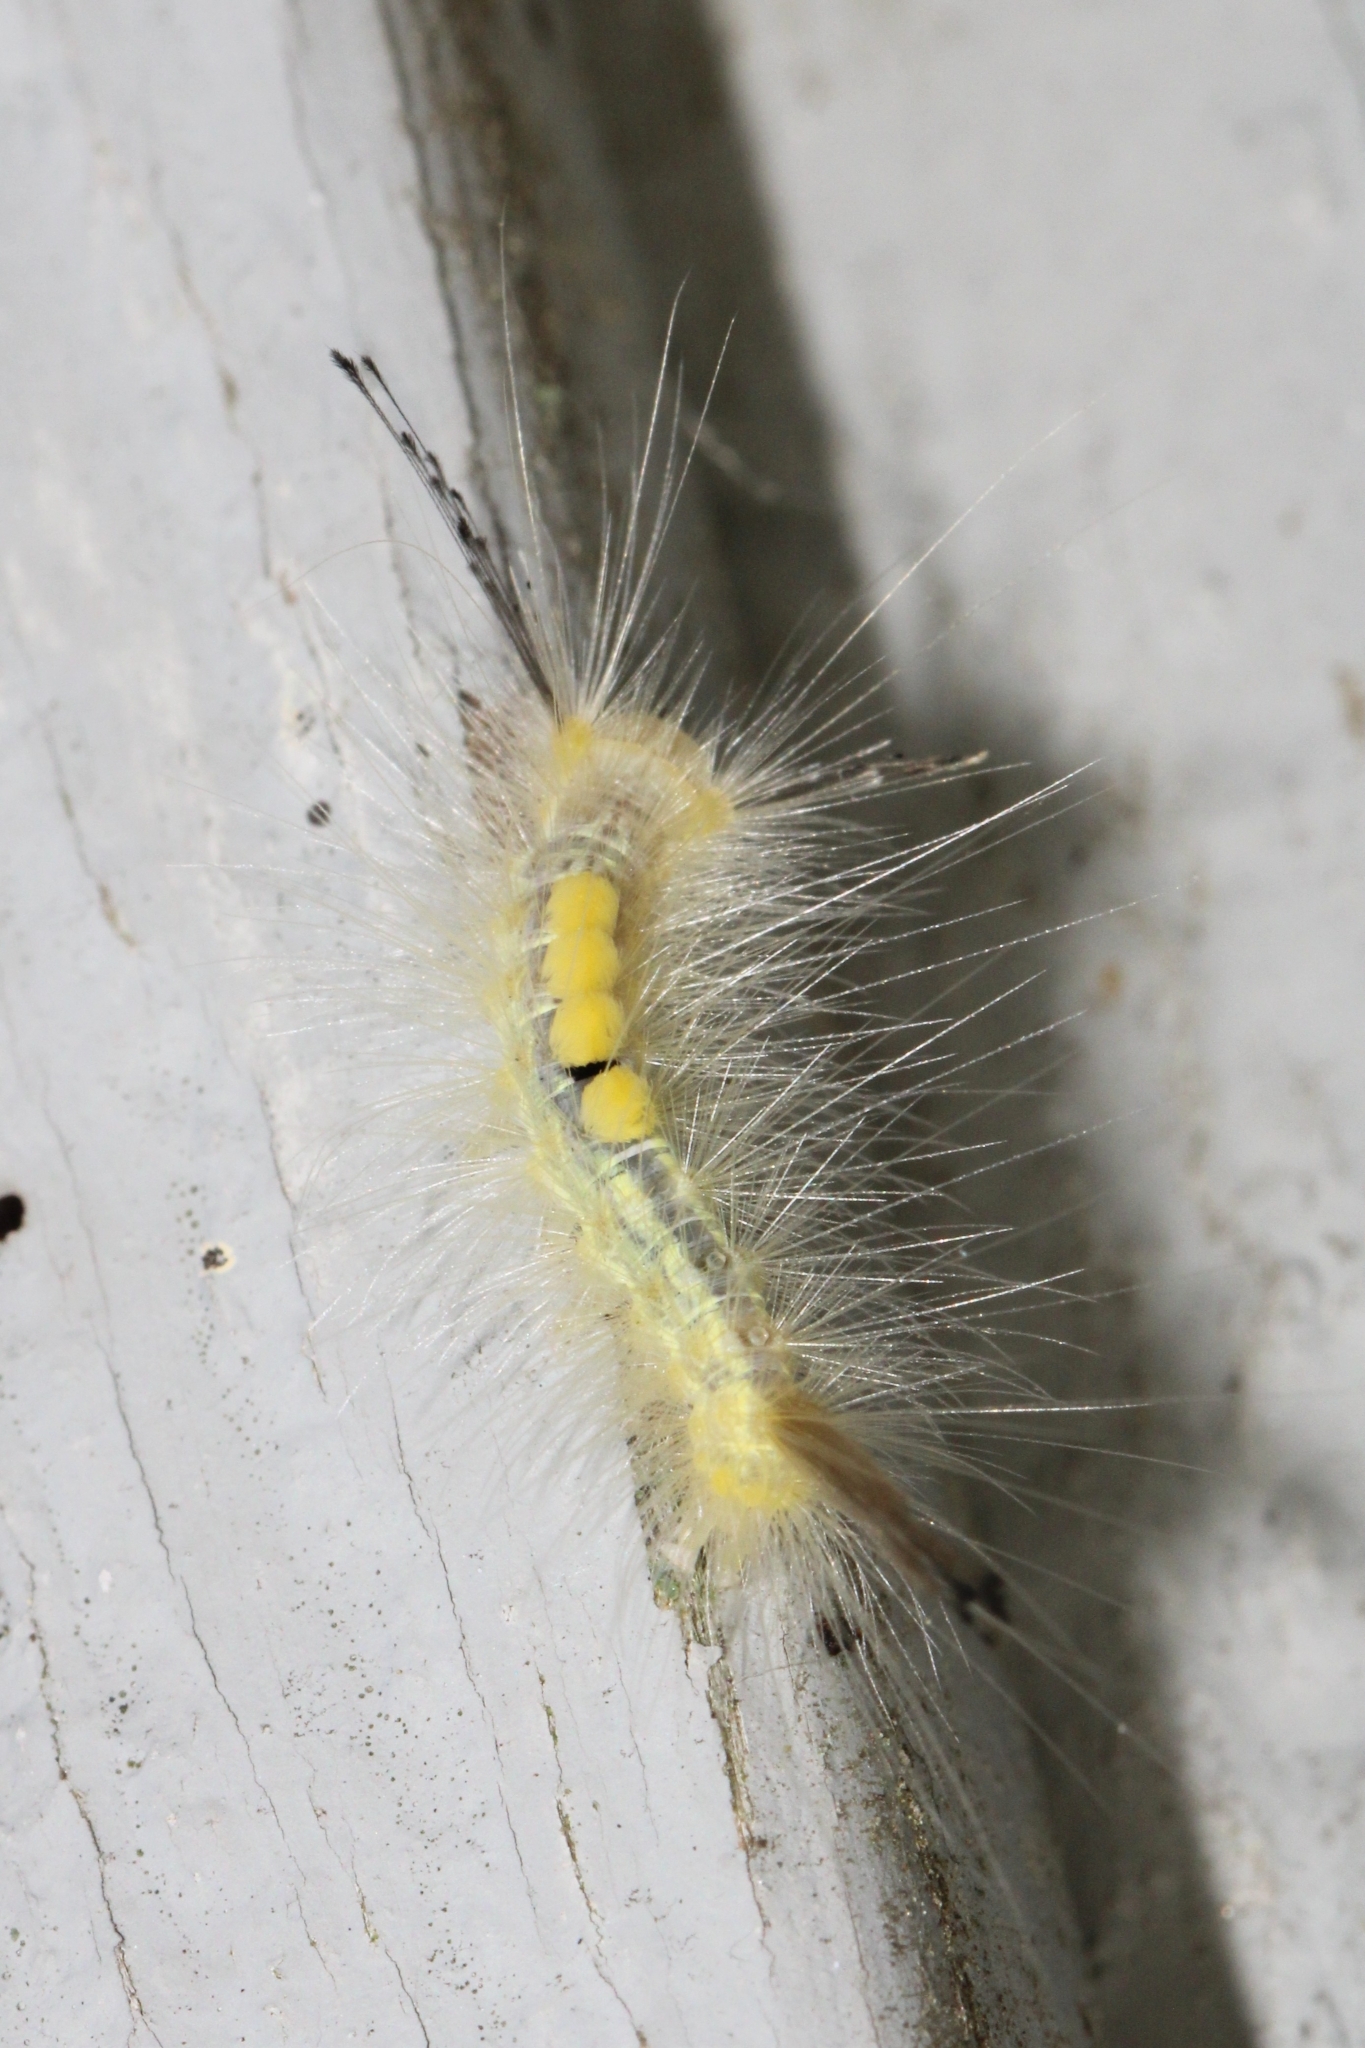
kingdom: Animalia
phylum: Arthropoda
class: Insecta
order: Lepidoptera
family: Erebidae
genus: Orgyia
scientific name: Orgyia definita
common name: Definite tussock moth
